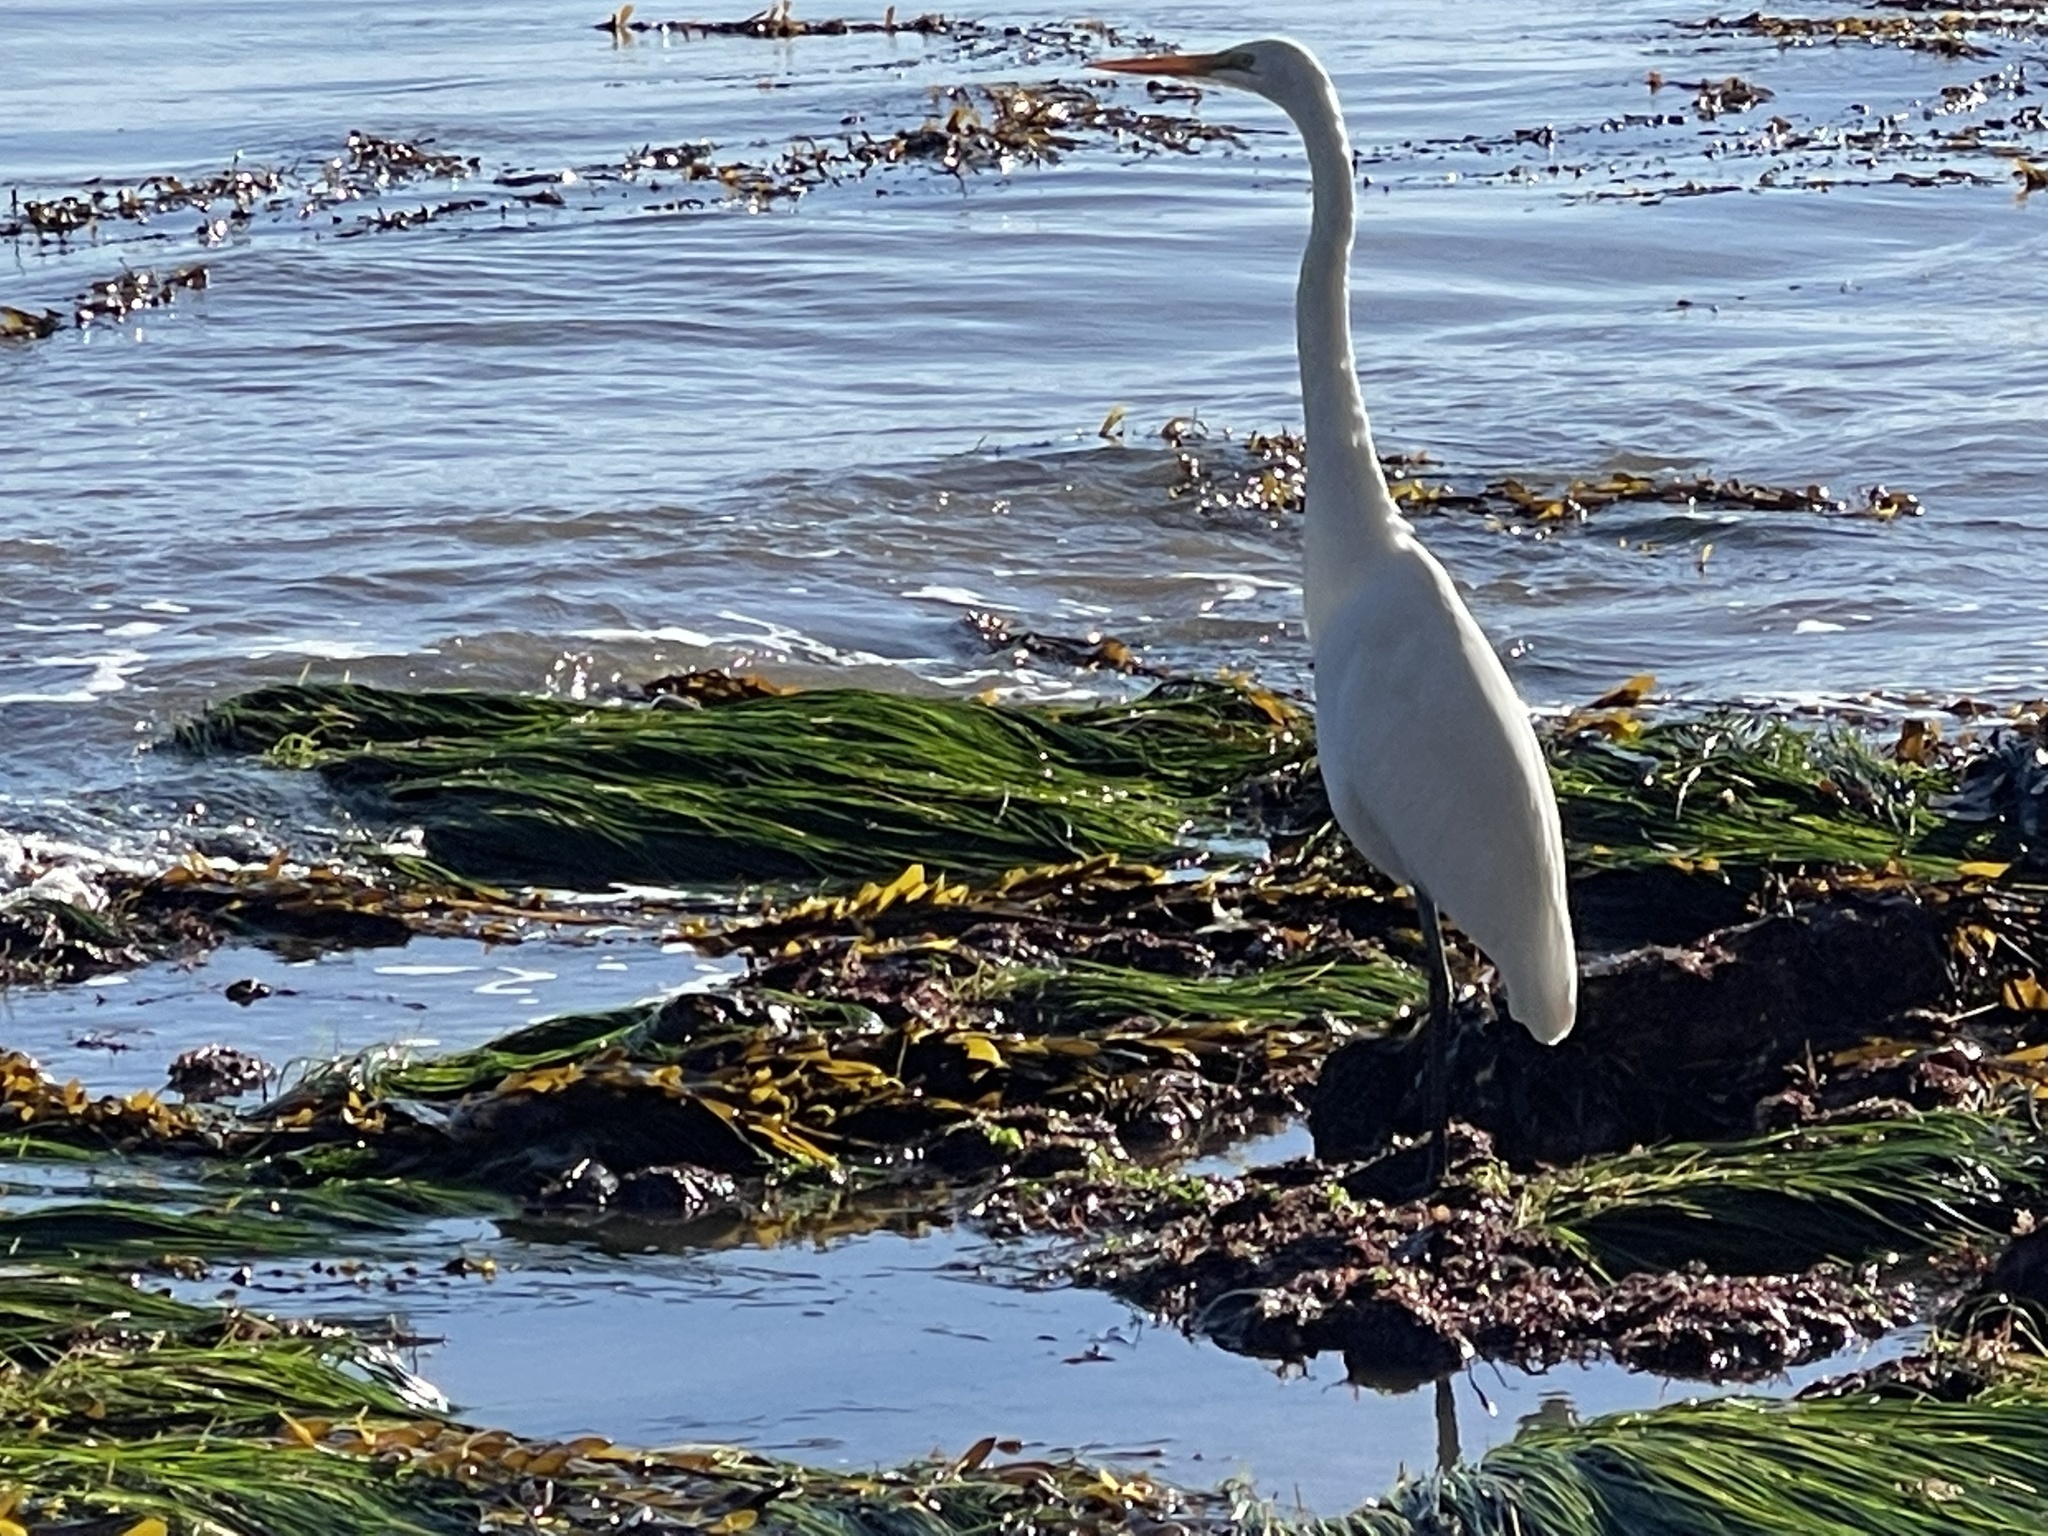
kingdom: Animalia
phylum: Chordata
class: Aves
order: Pelecaniformes
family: Ardeidae
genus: Ardea
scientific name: Ardea alba
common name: Great egret
